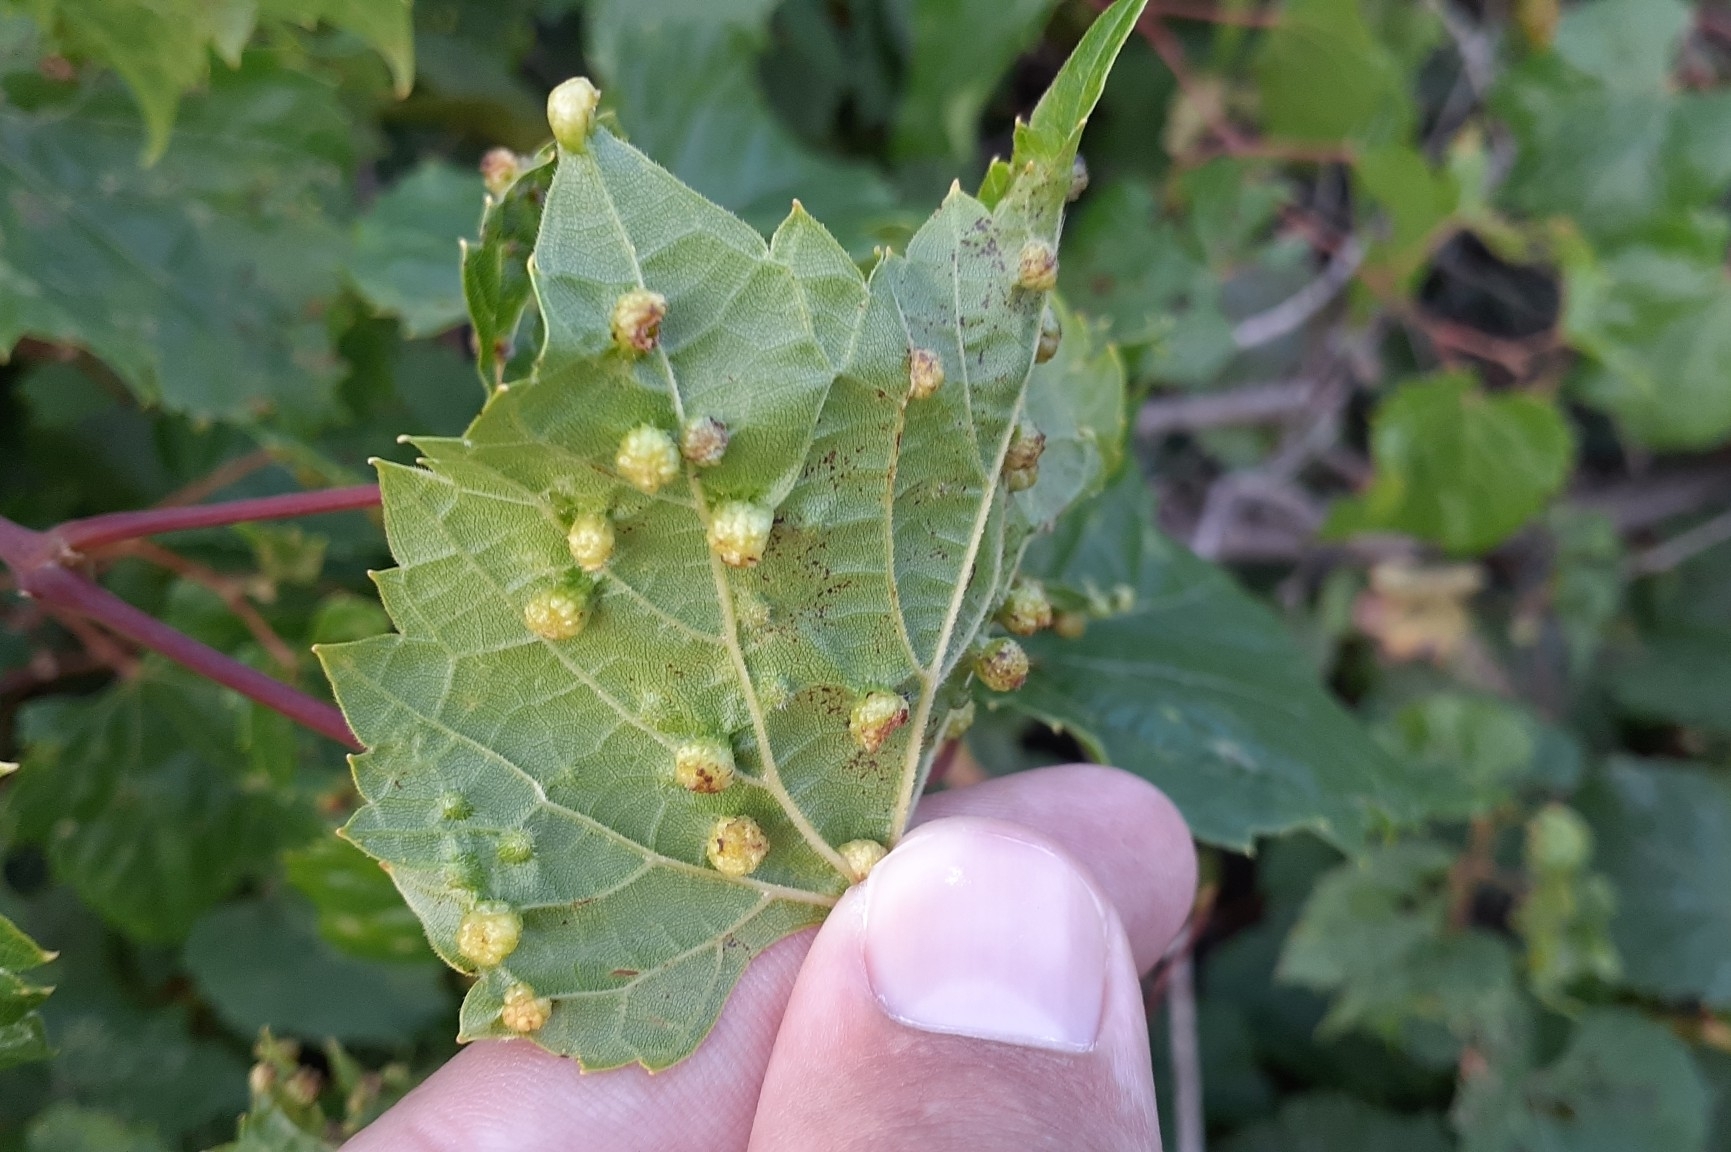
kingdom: Animalia
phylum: Arthropoda
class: Insecta
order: Hemiptera
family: Phylloxeridae
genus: Daktulosphaira
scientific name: Daktulosphaira vitifoliae
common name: Grape phylloxera
